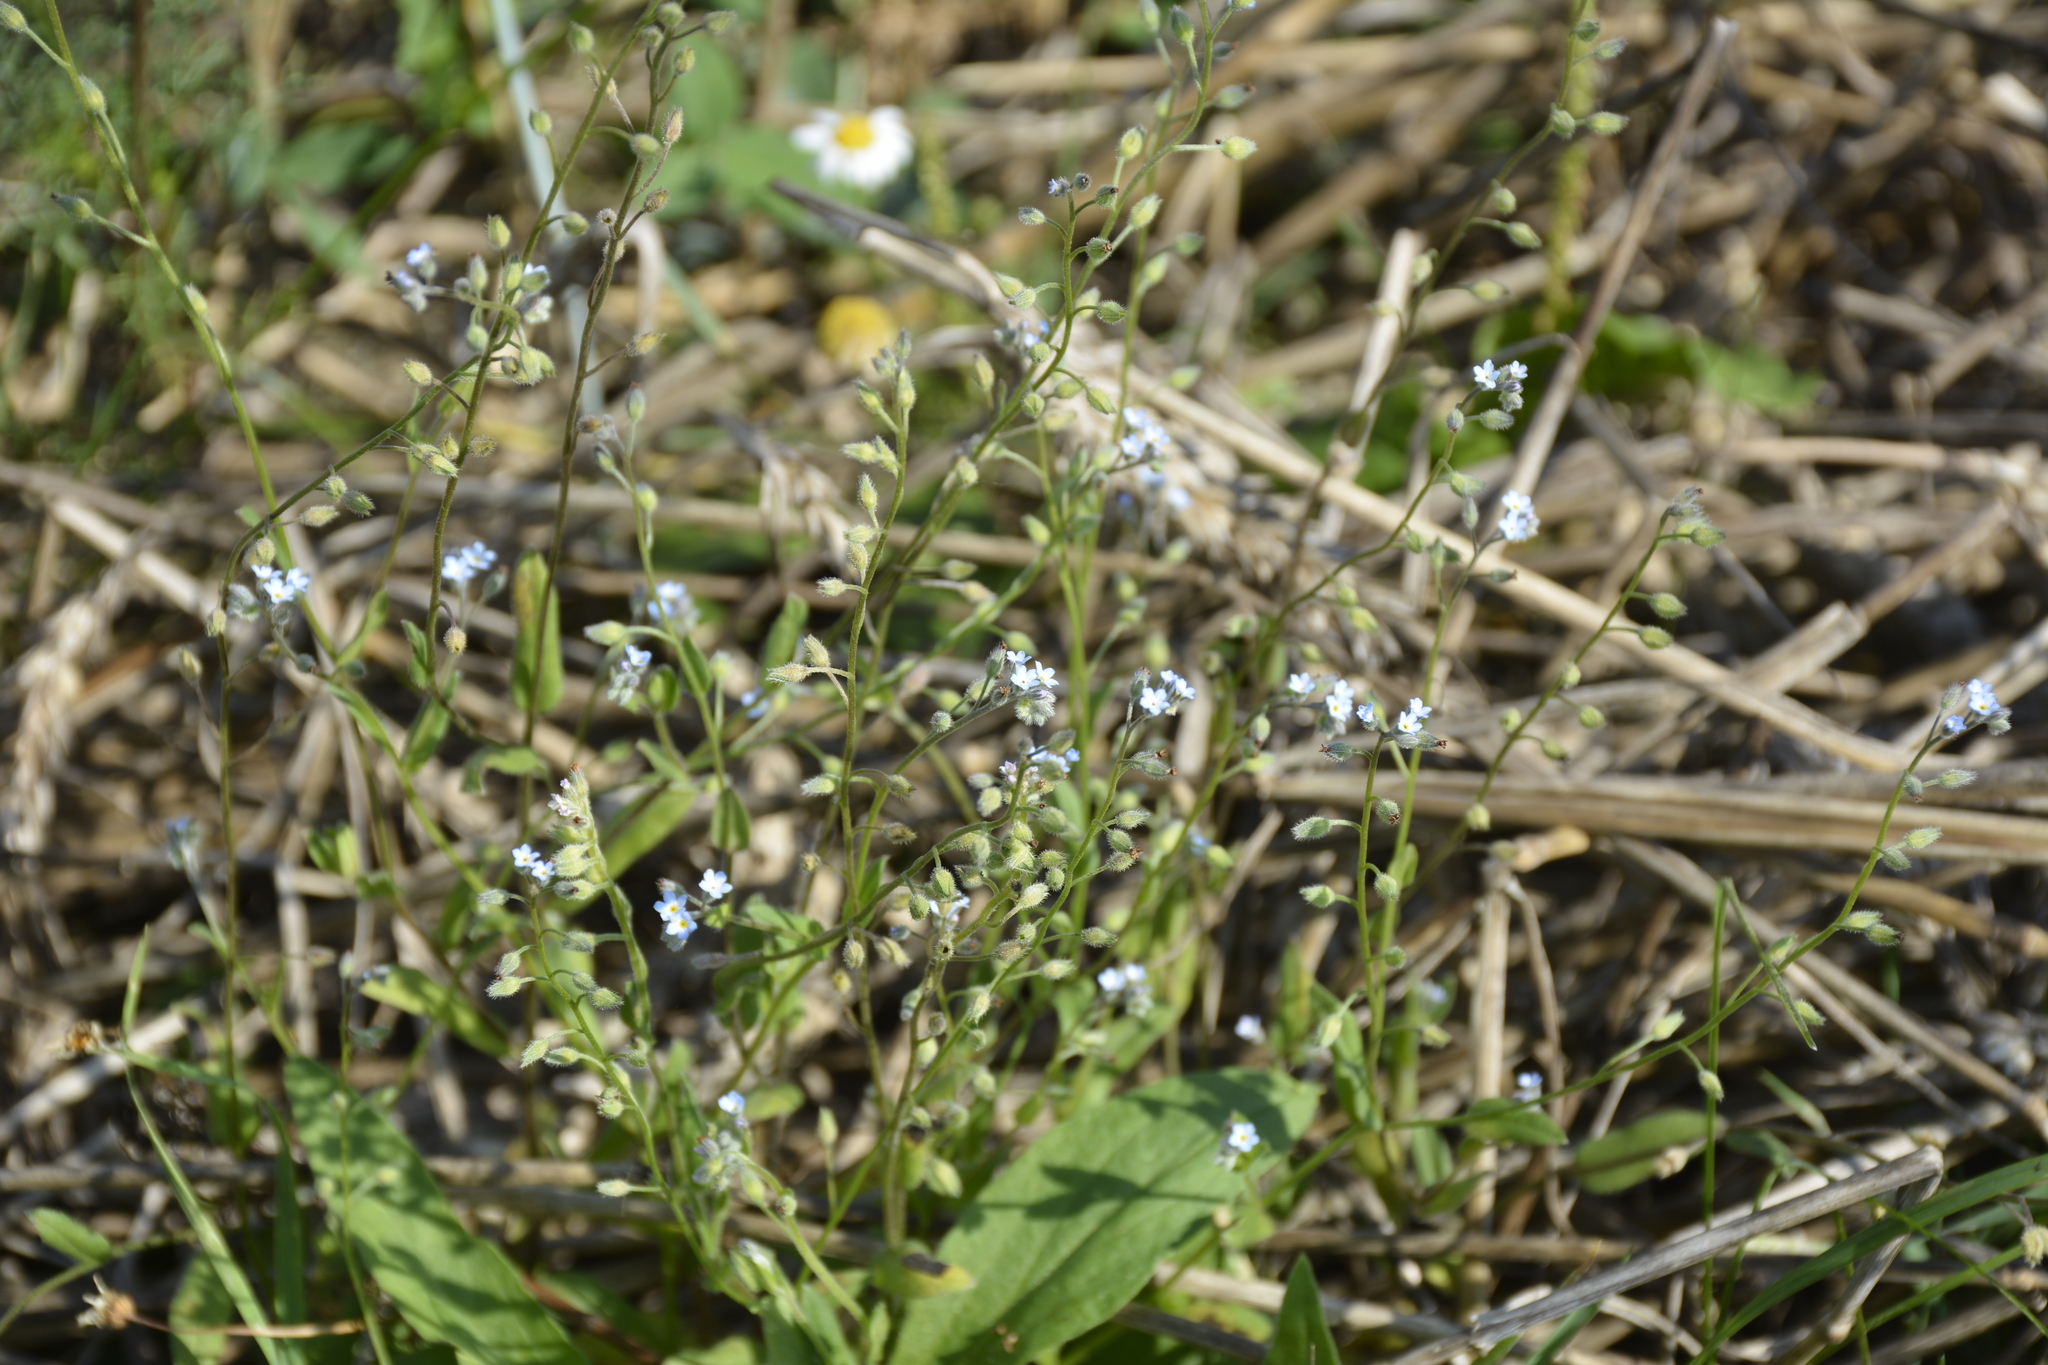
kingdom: Plantae
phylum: Tracheophyta
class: Magnoliopsida
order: Boraginales
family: Boraginaceae
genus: Myosotis
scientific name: Myosotis arvensis
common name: Field forget-me-not
